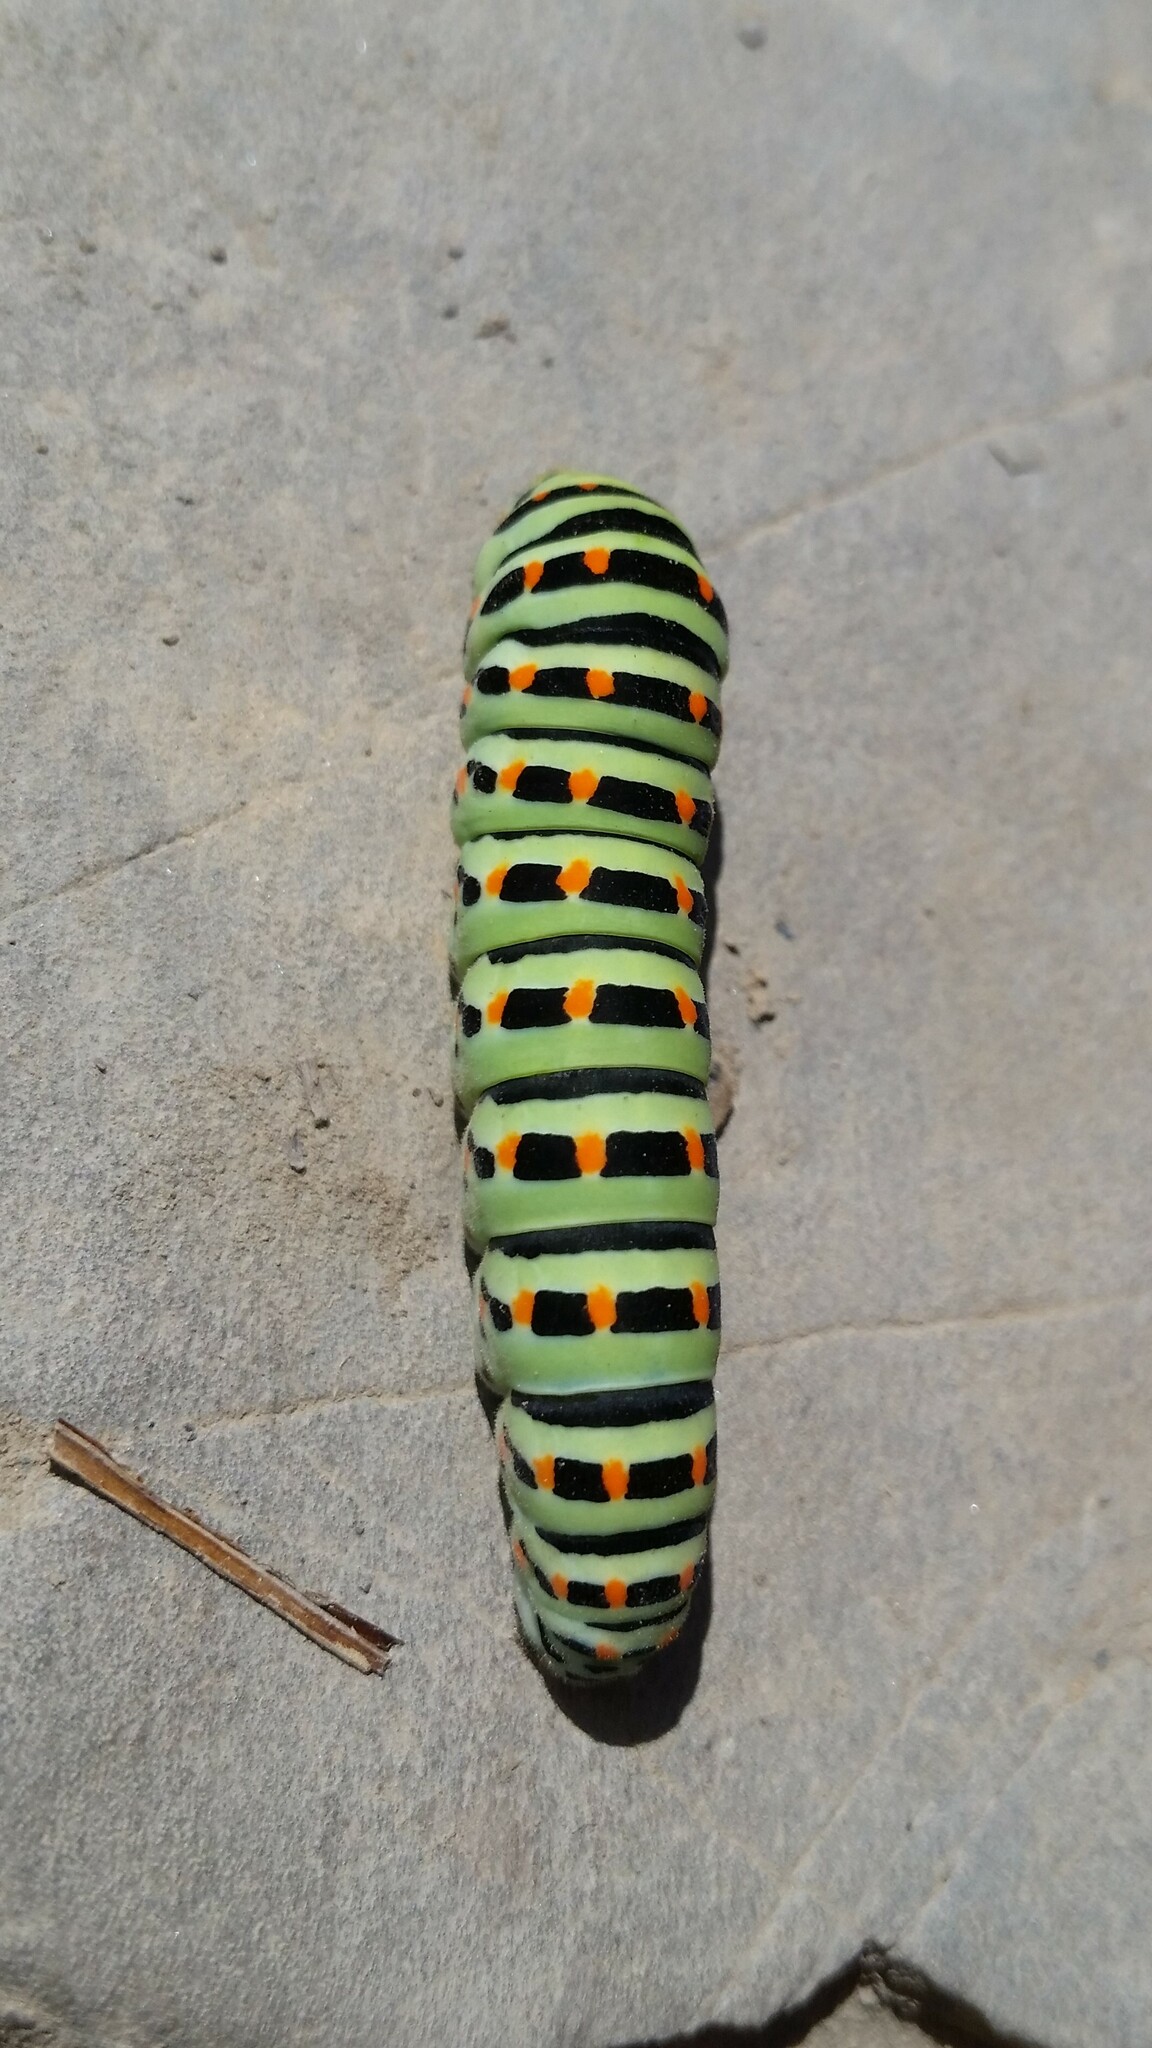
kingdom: Animalia
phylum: Arthropoda
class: Insecta
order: Lepidoptera
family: Papilionidae
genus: Papilio
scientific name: Papilio machaon
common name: Swallowtail
